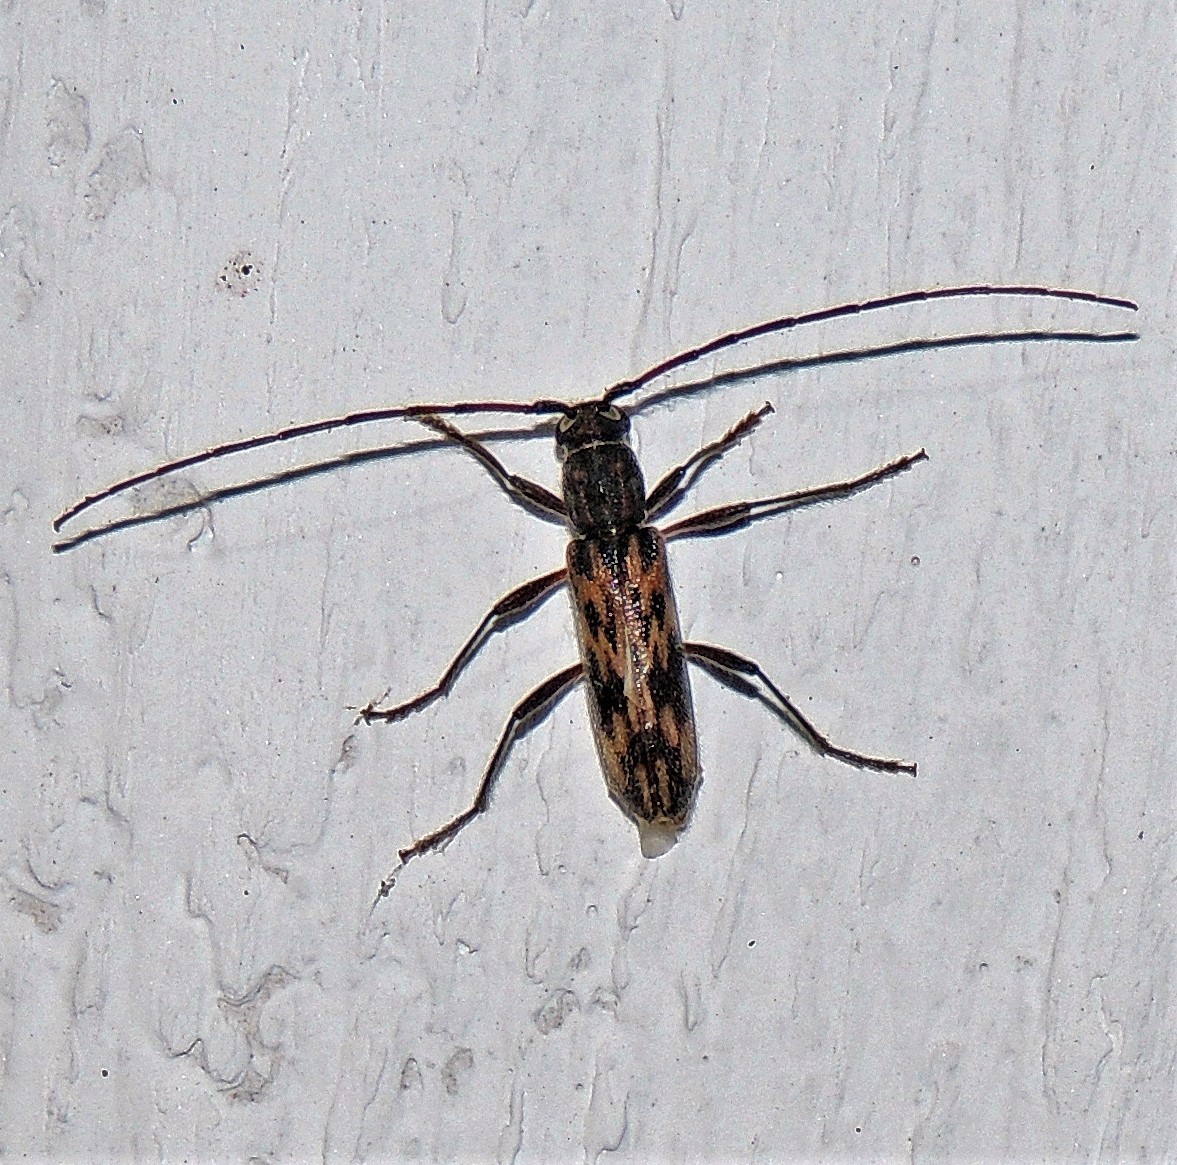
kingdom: Animalia
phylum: Arthropoda
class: Insecta
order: Coleoptera
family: Cerambycidae
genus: Achryson
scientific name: Achryson undulatum
